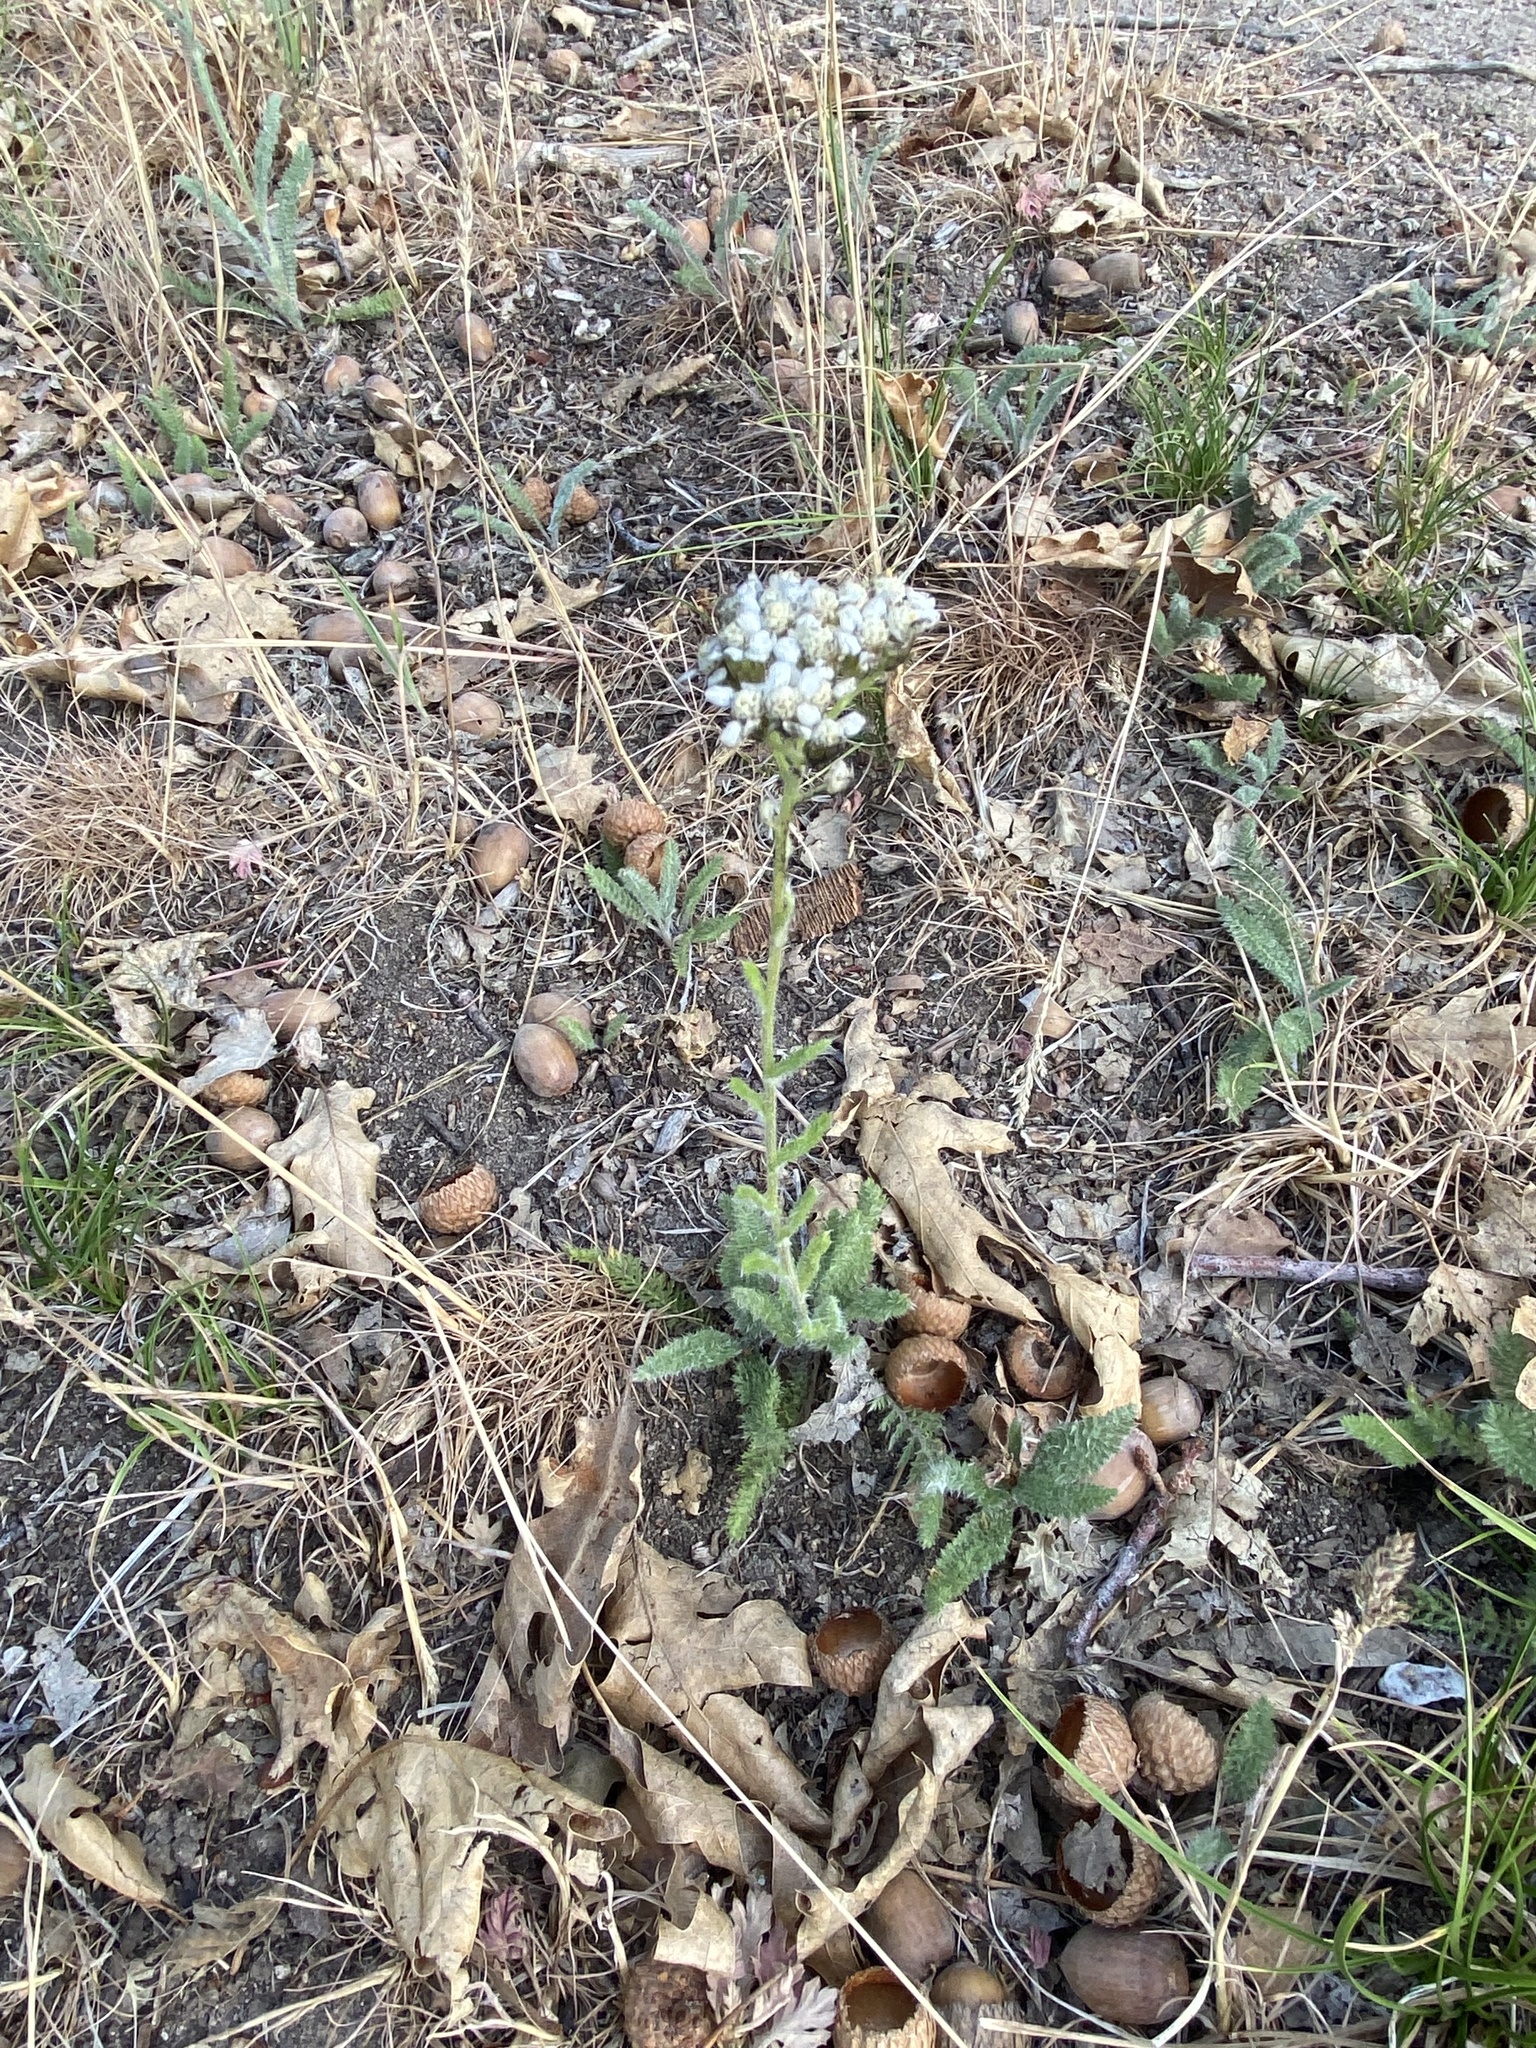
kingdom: Plantae
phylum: Tracheophyta
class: Magnoliopsida
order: Asterales
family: Asteraceae
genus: Achillea
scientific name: Achillea millefolium
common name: Yarrow
